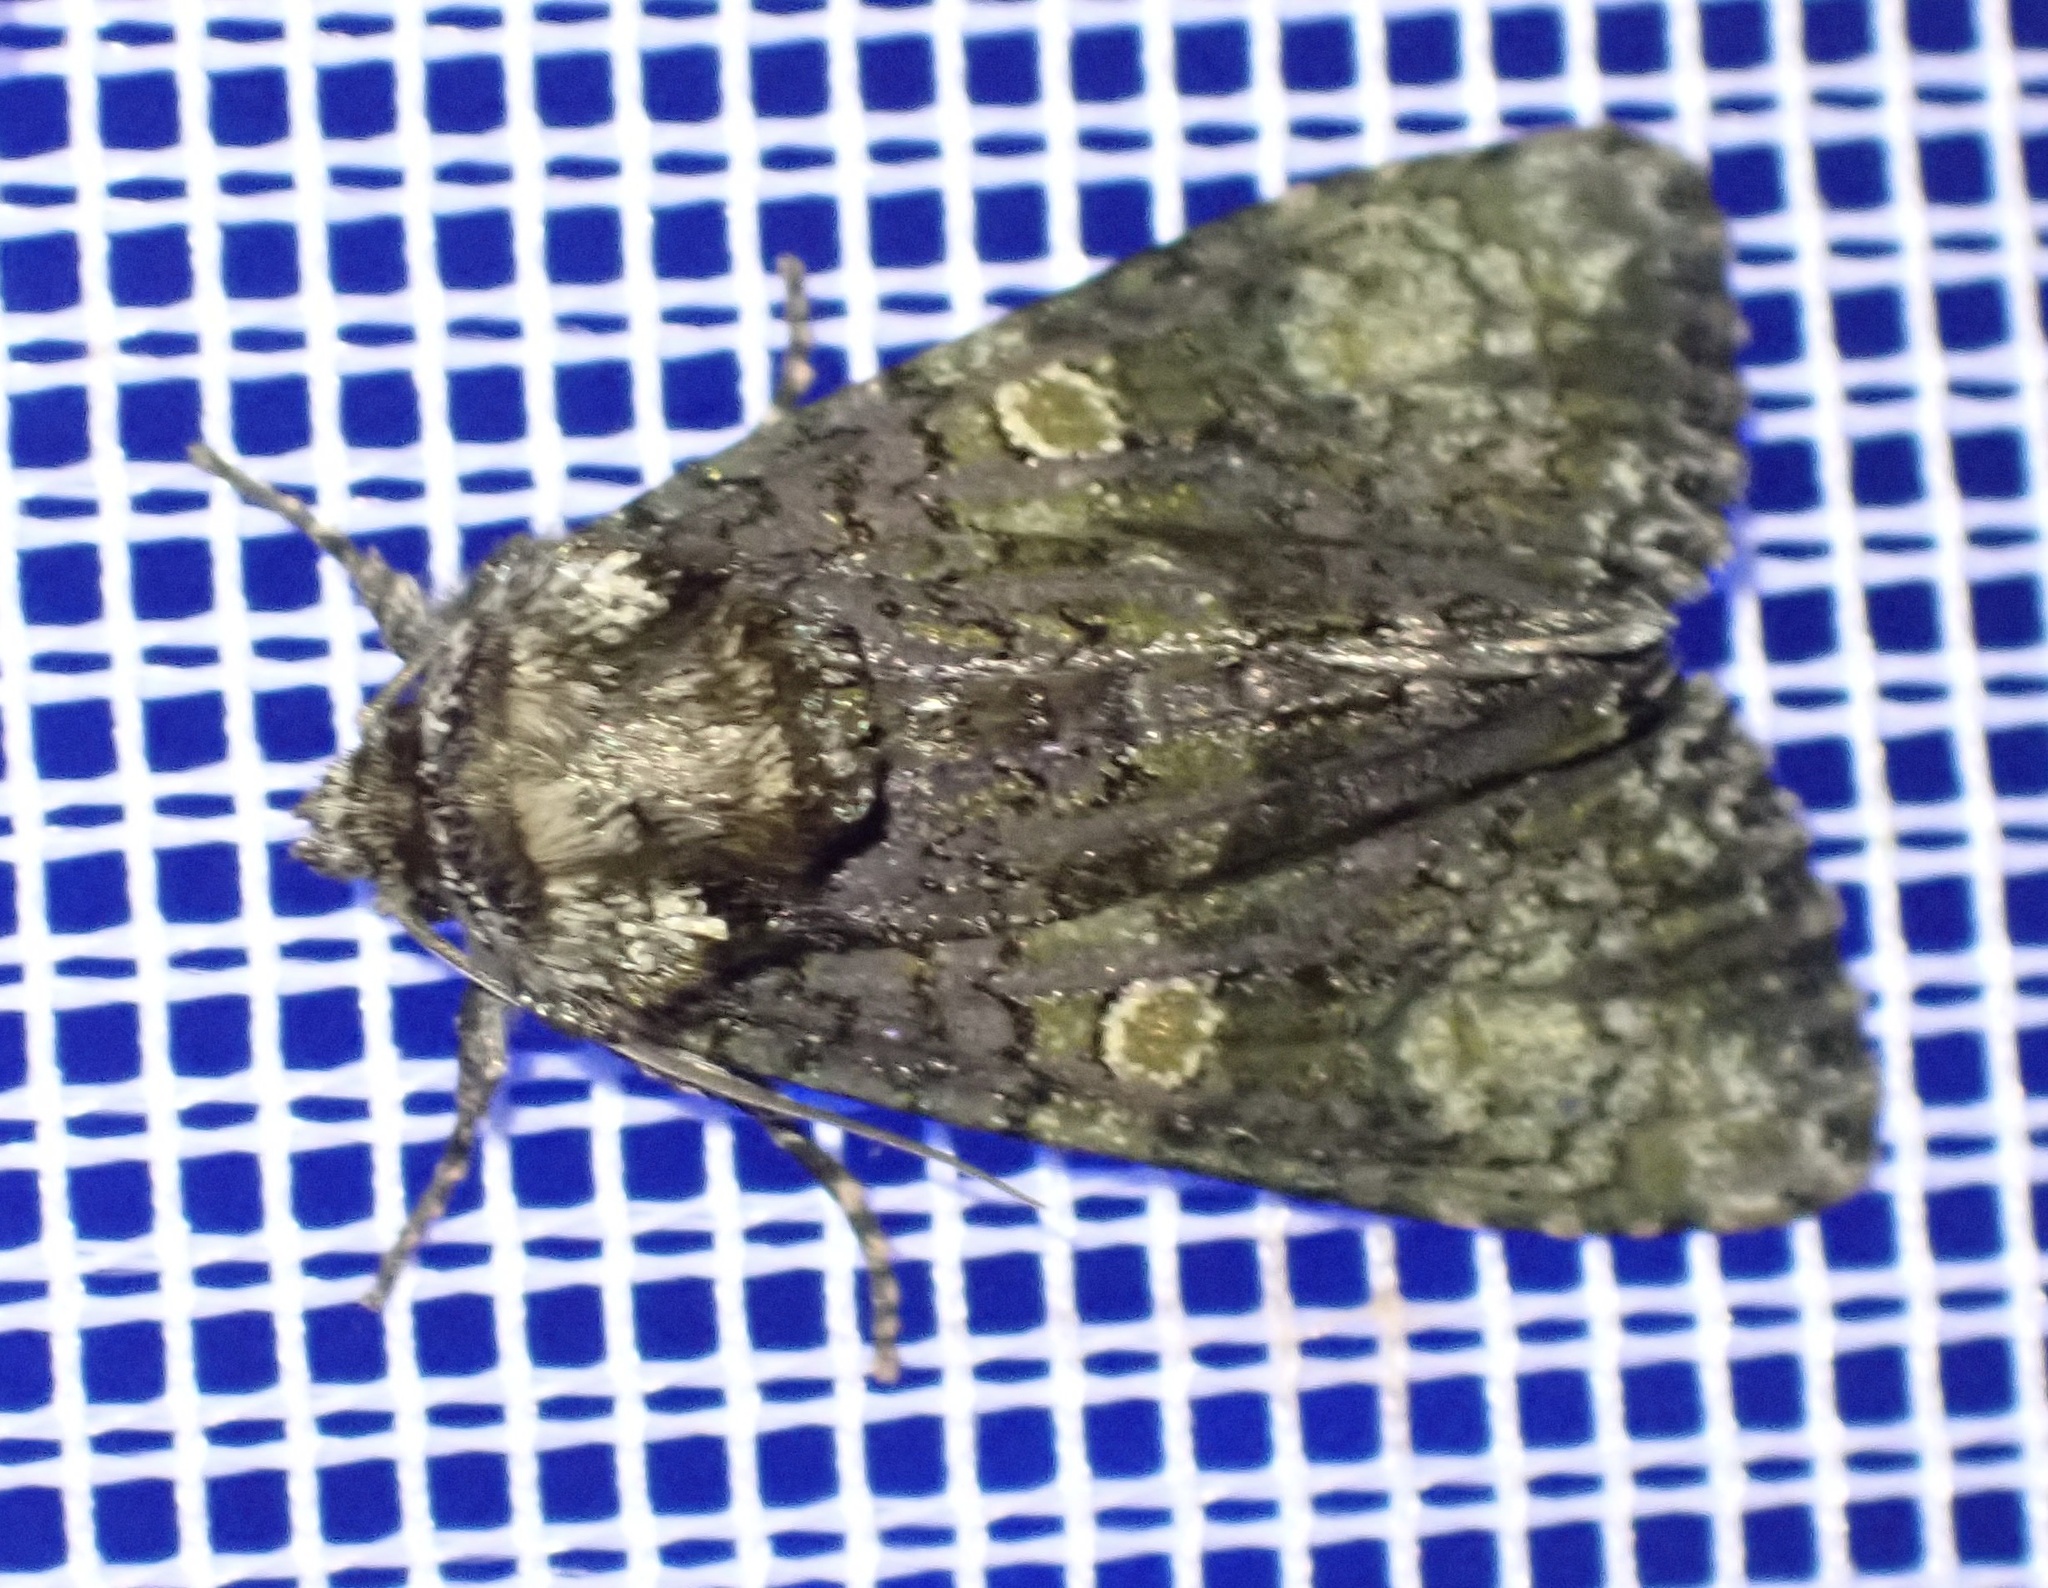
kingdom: Animalia
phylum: Arthropoda
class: Insecta
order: Lepidoptera
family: Noctuidae
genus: Craniophora
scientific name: Craniophora ligustri
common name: Coronet
